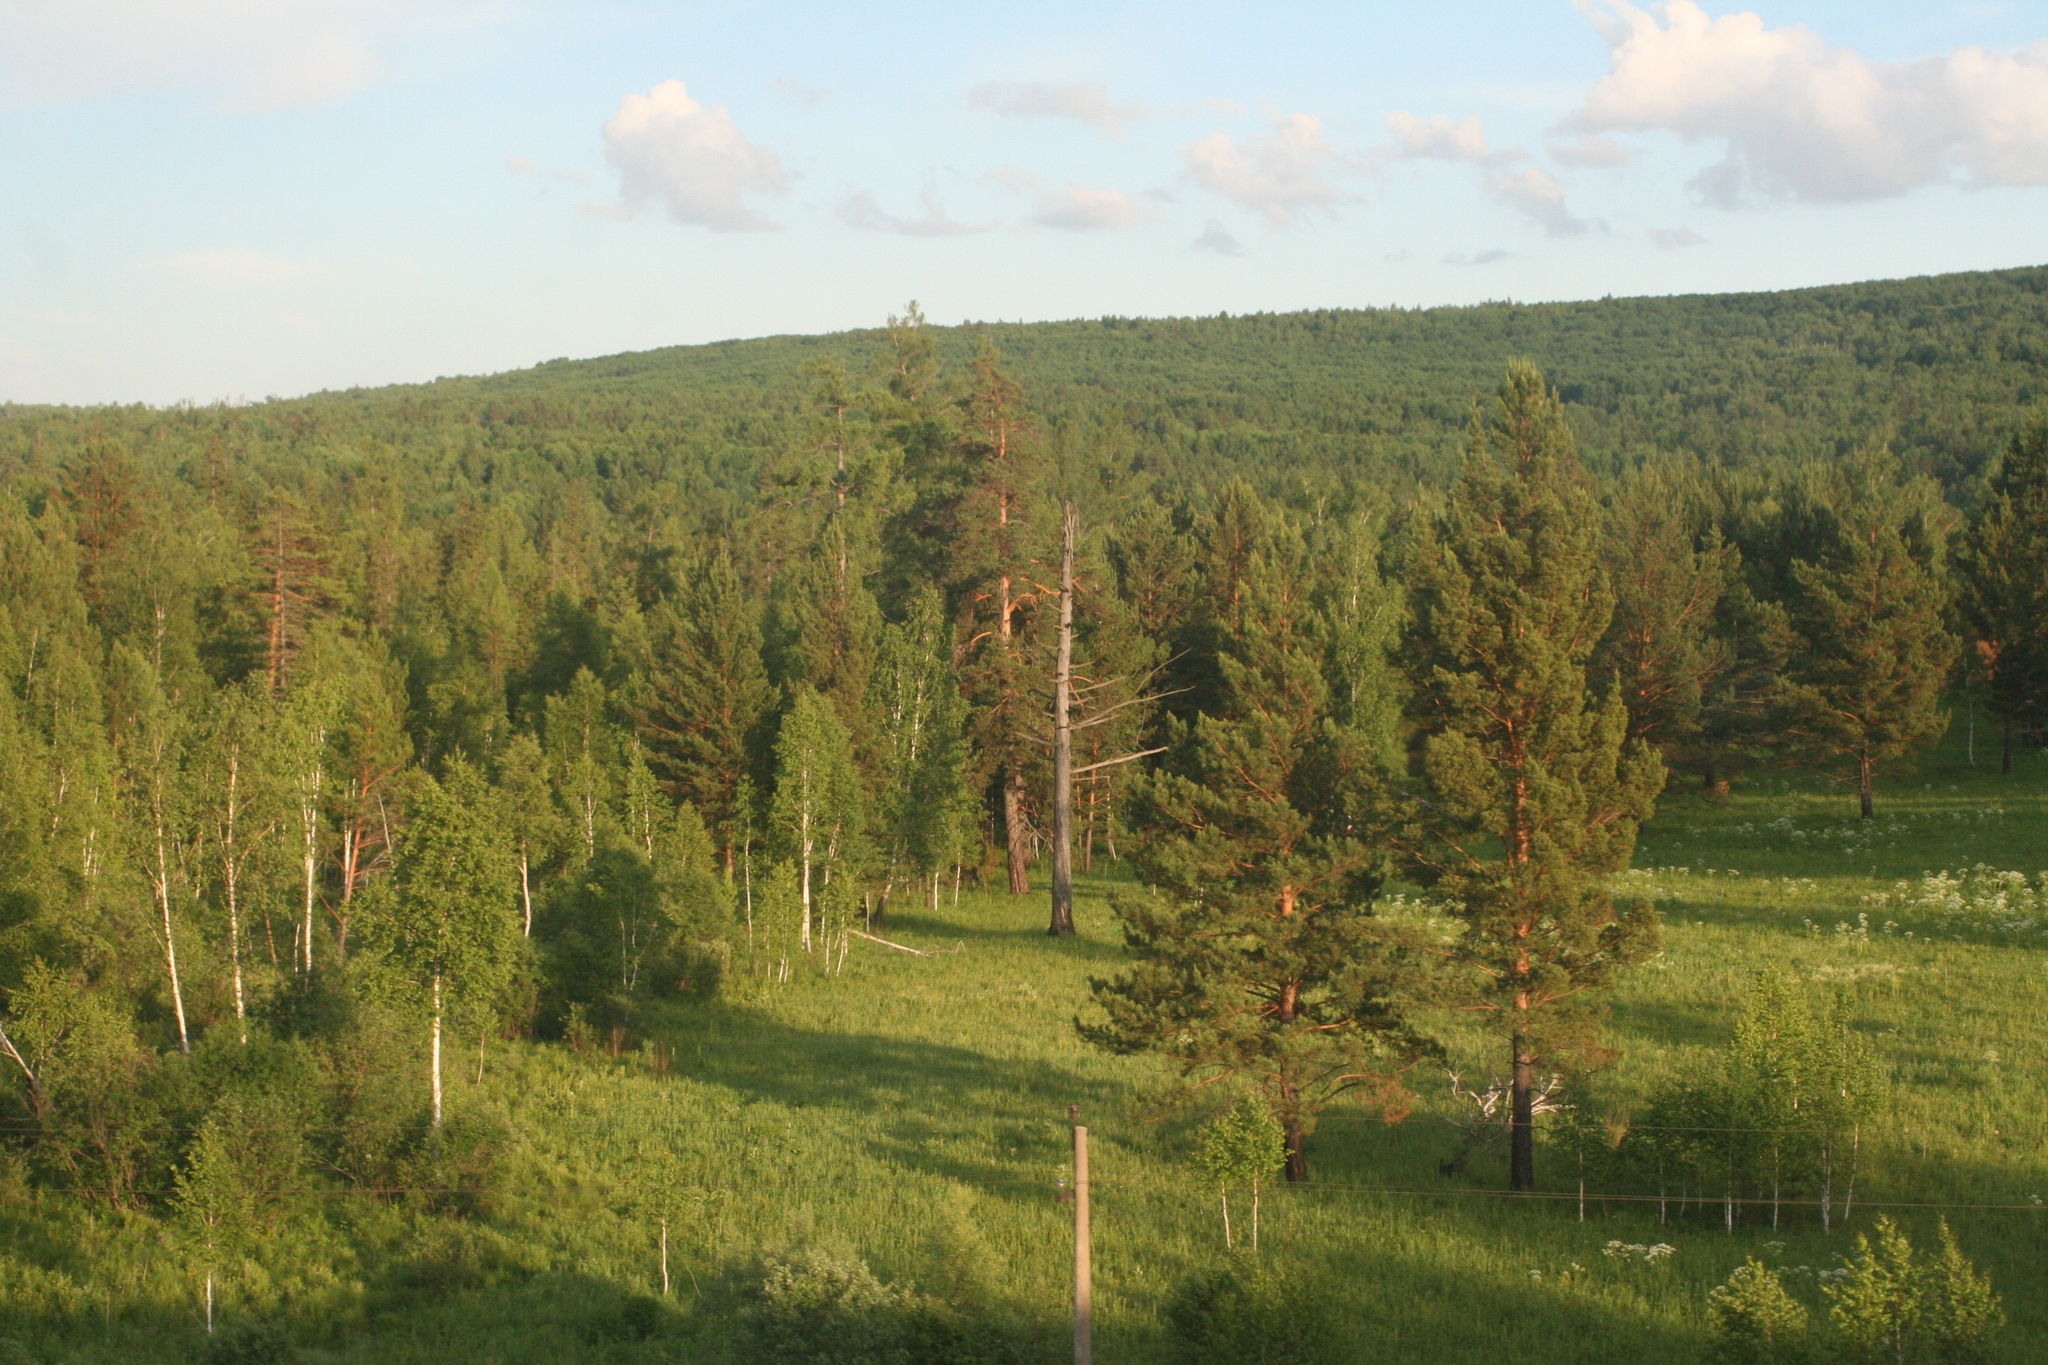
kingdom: Plantae
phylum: Tracheophyta
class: Pinopsida
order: Pinales
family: Pinaceae
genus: Pinus
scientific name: Pinus sylvestris
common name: Scots pine
